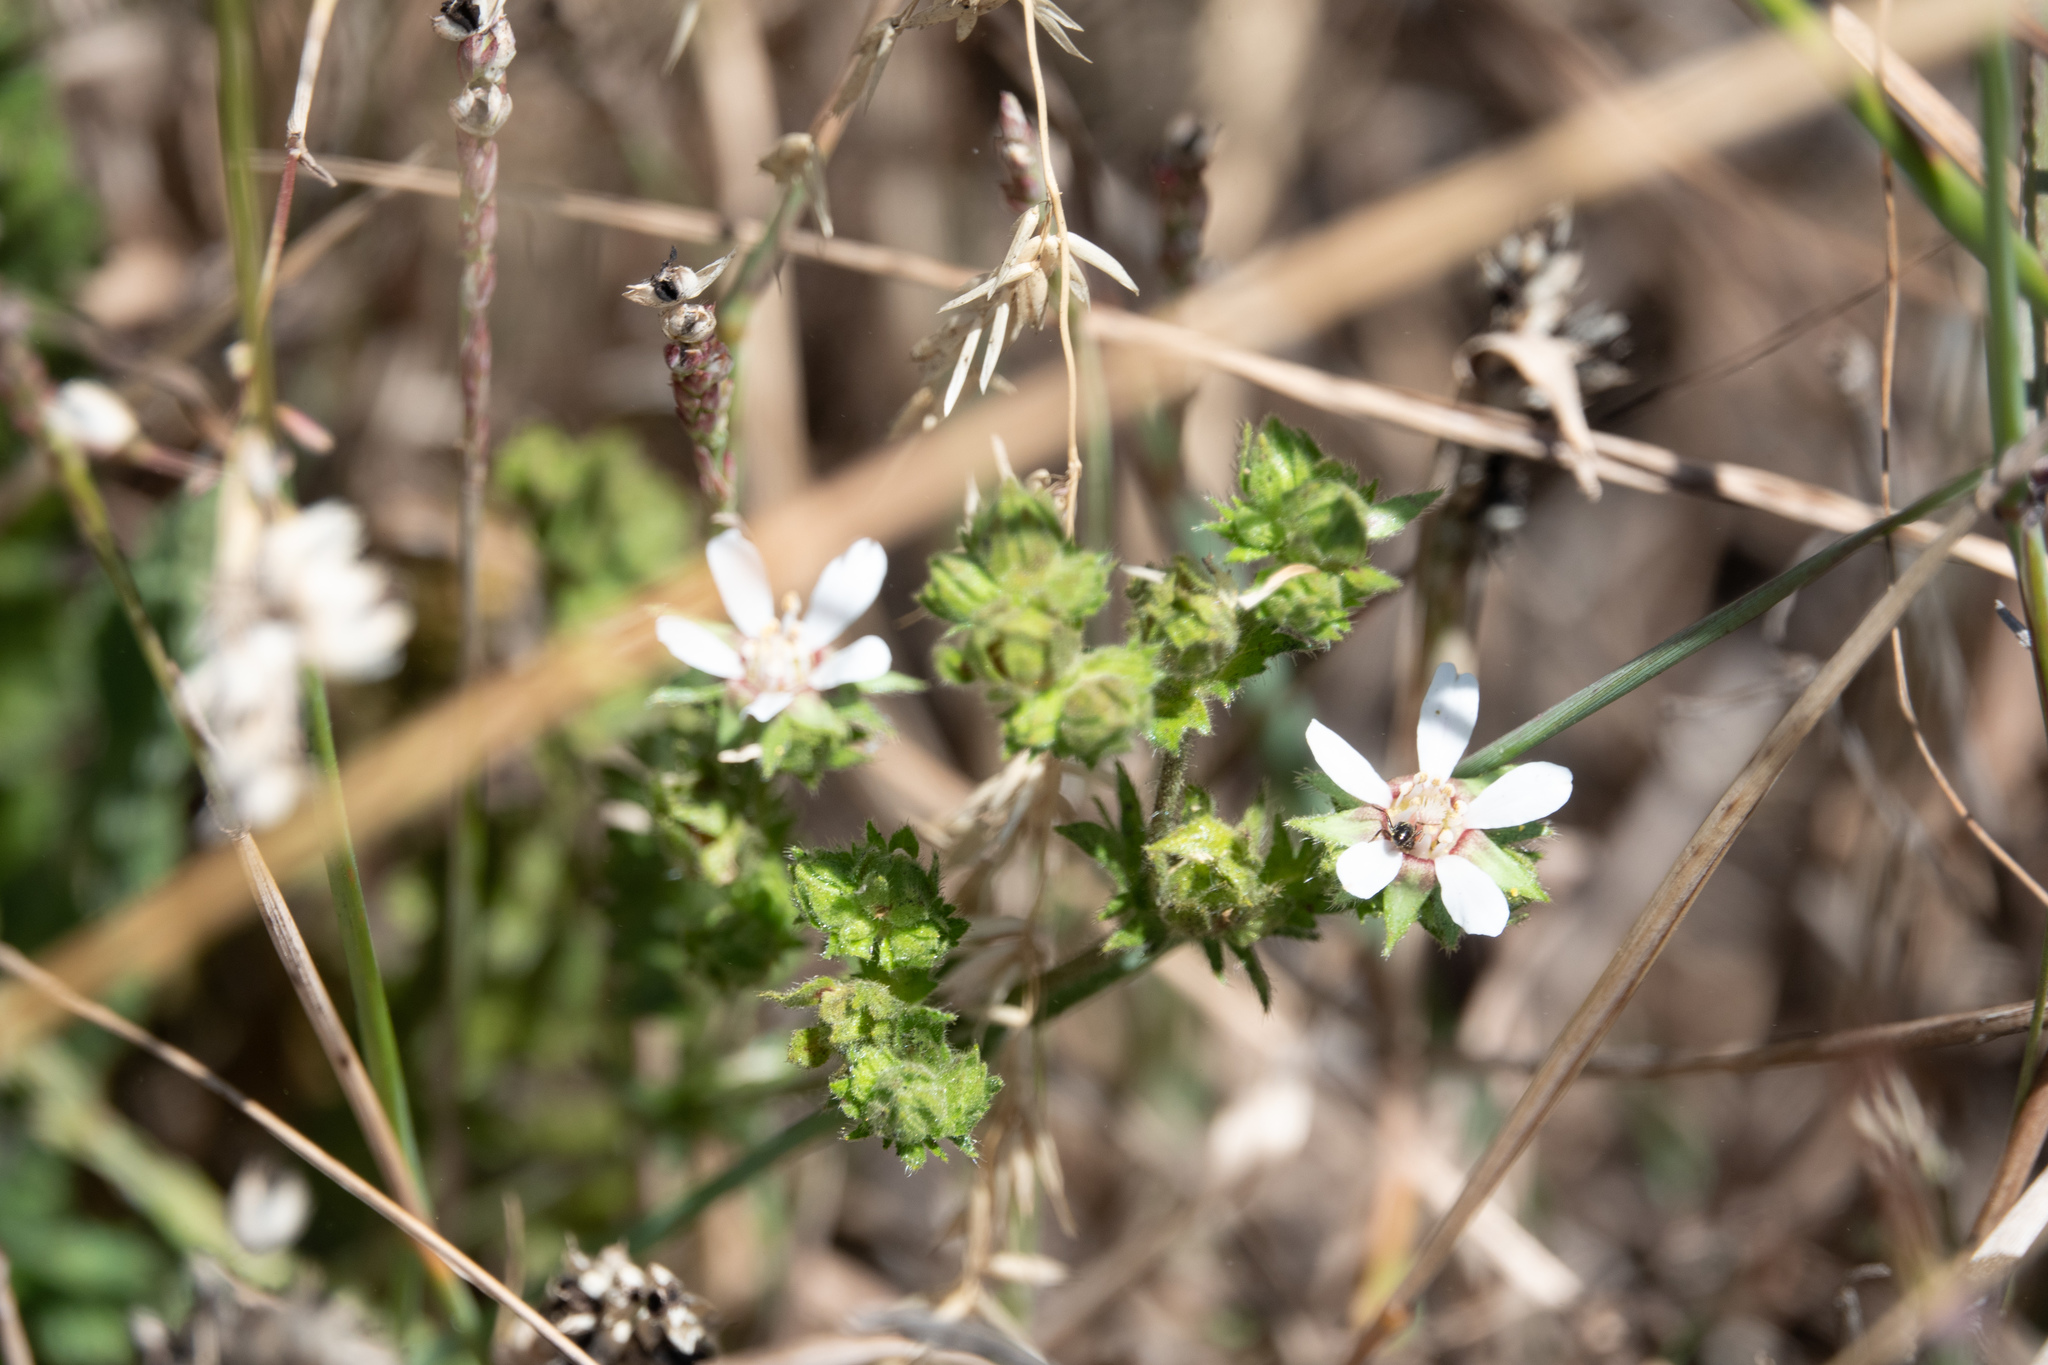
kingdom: Plantae
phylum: Tracheophyta
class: Magnoliopsida
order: Rosales
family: Rosaceae
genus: Potentilla
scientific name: Potentilla
